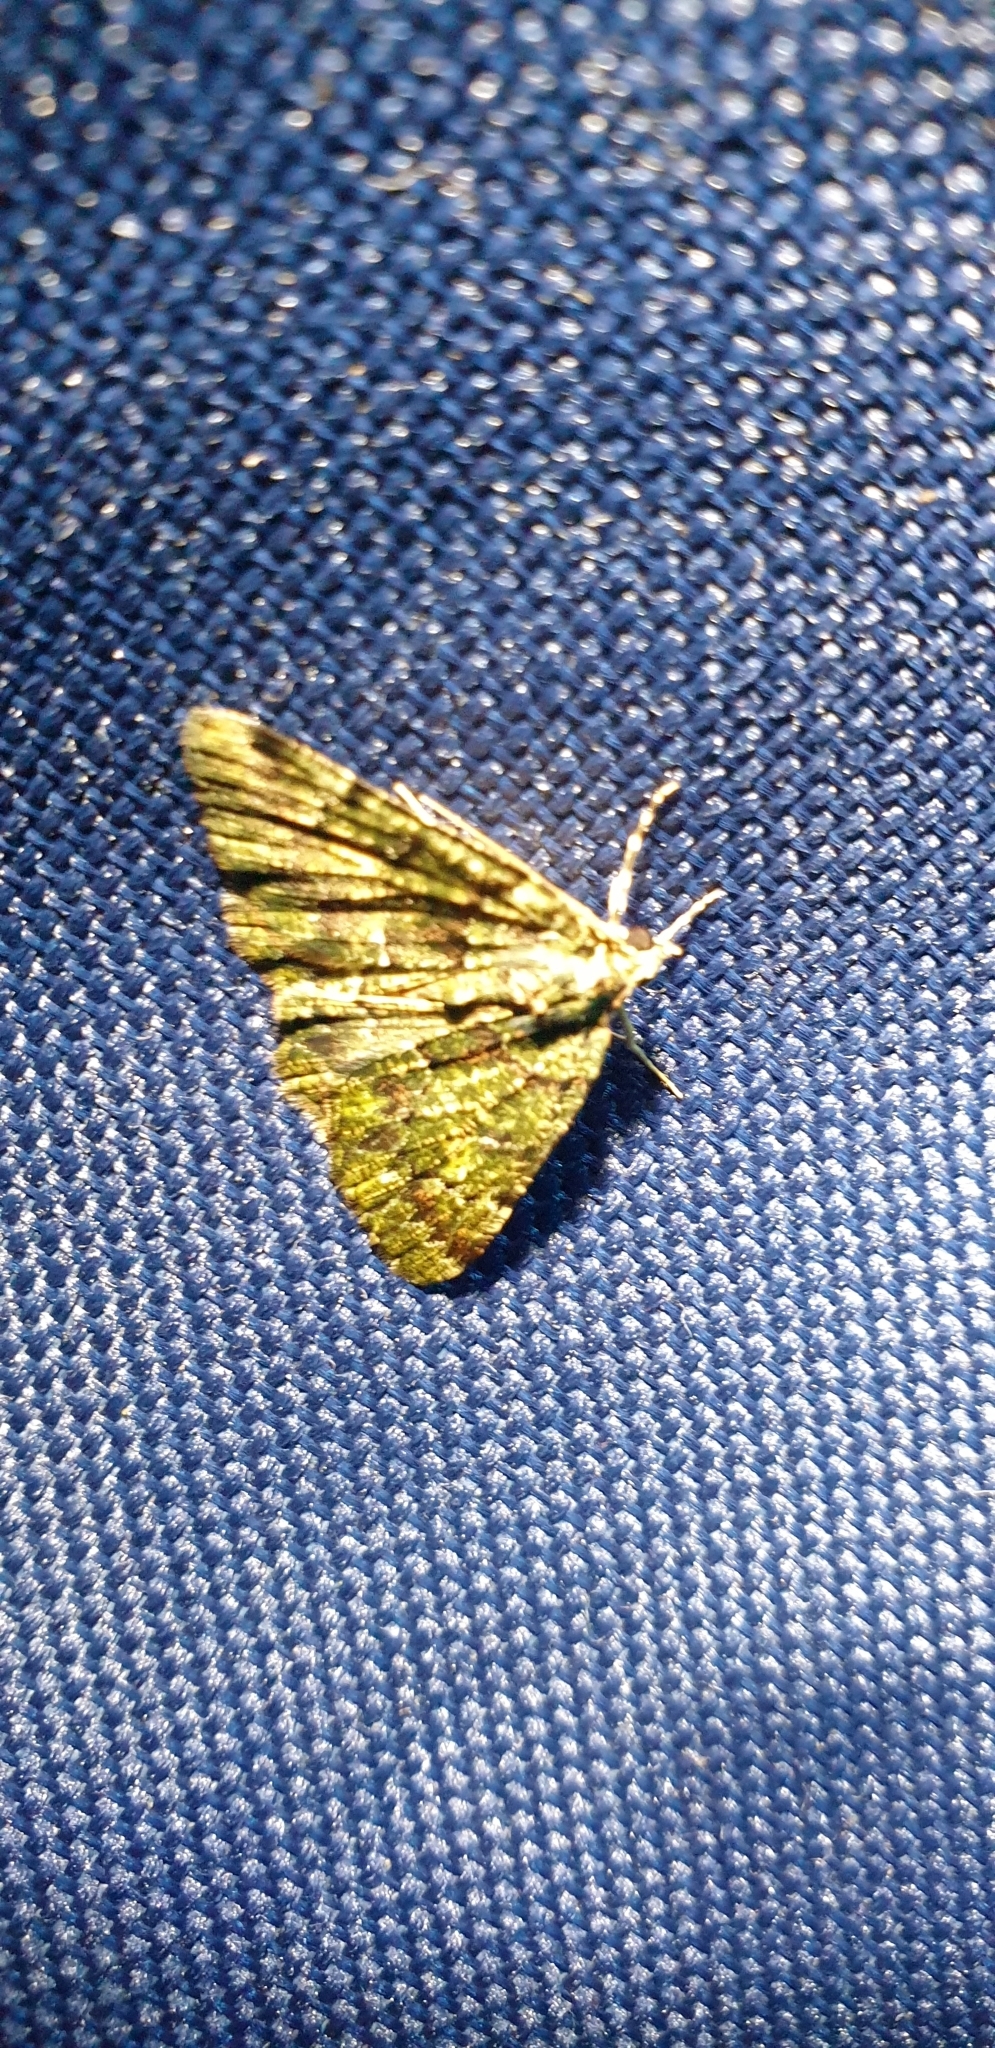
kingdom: Animalia
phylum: Arthropoda
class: Insecta
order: Lepidoptera
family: Geometridae
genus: Aeolochroma
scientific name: Aeolochroma metarhodata
